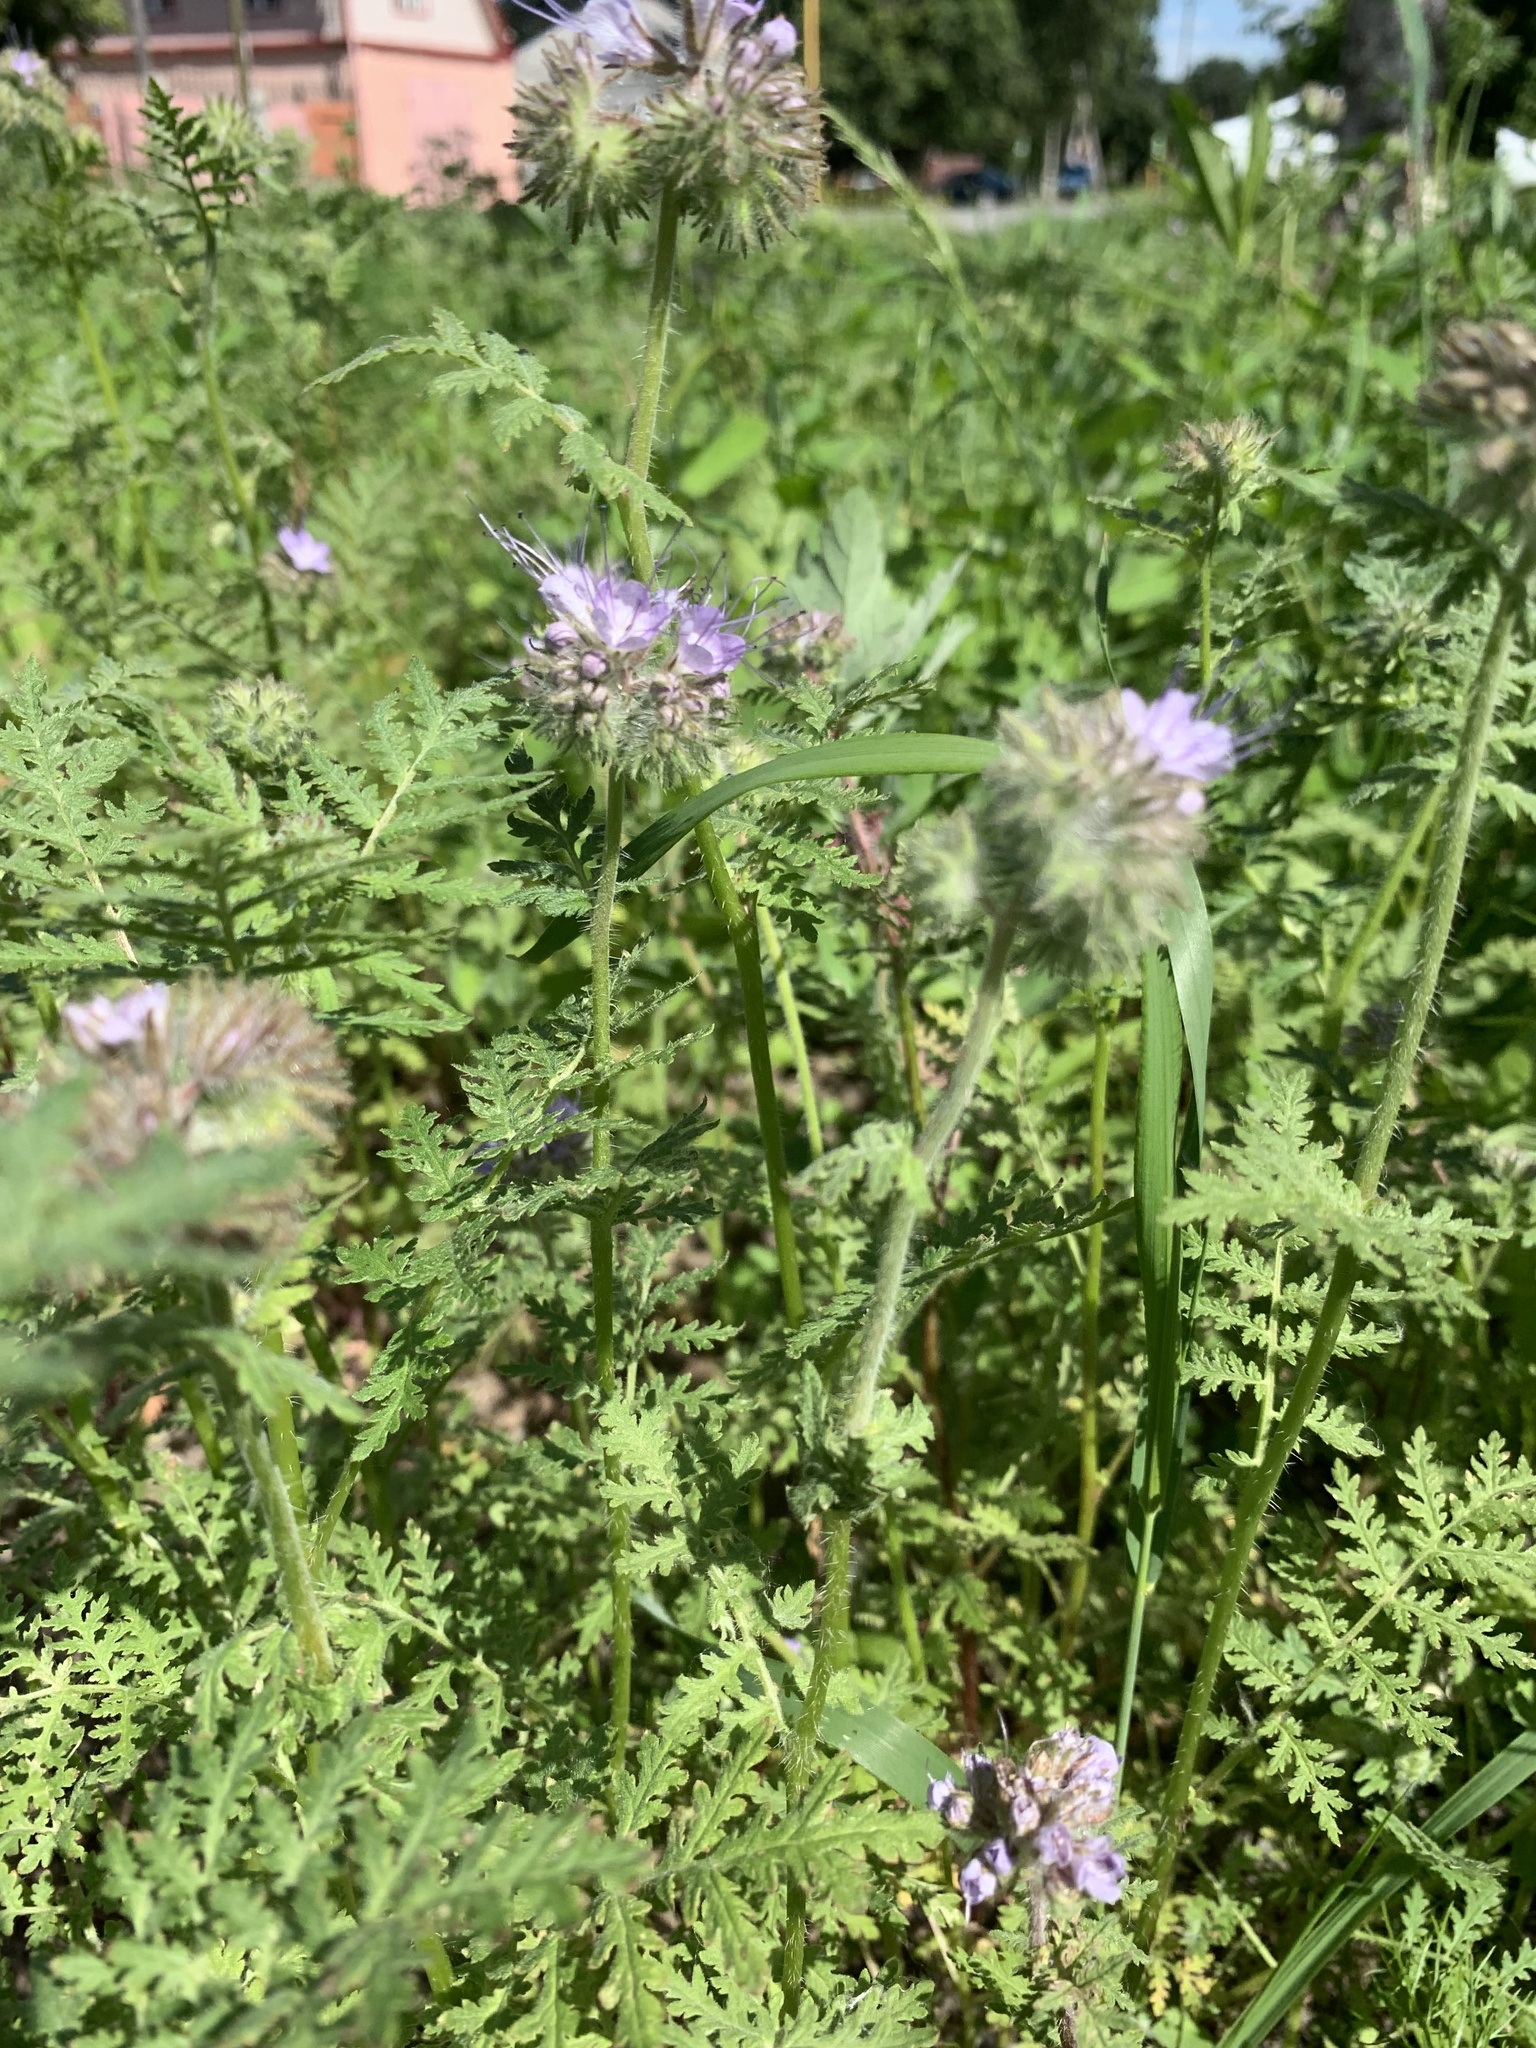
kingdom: Plantae
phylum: Tracheophyta
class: Magnoliopsida
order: Boraginales
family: Hydrophyllaceae
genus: Phacelia
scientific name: Phacelia tanacetifolia
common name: Phacelia
